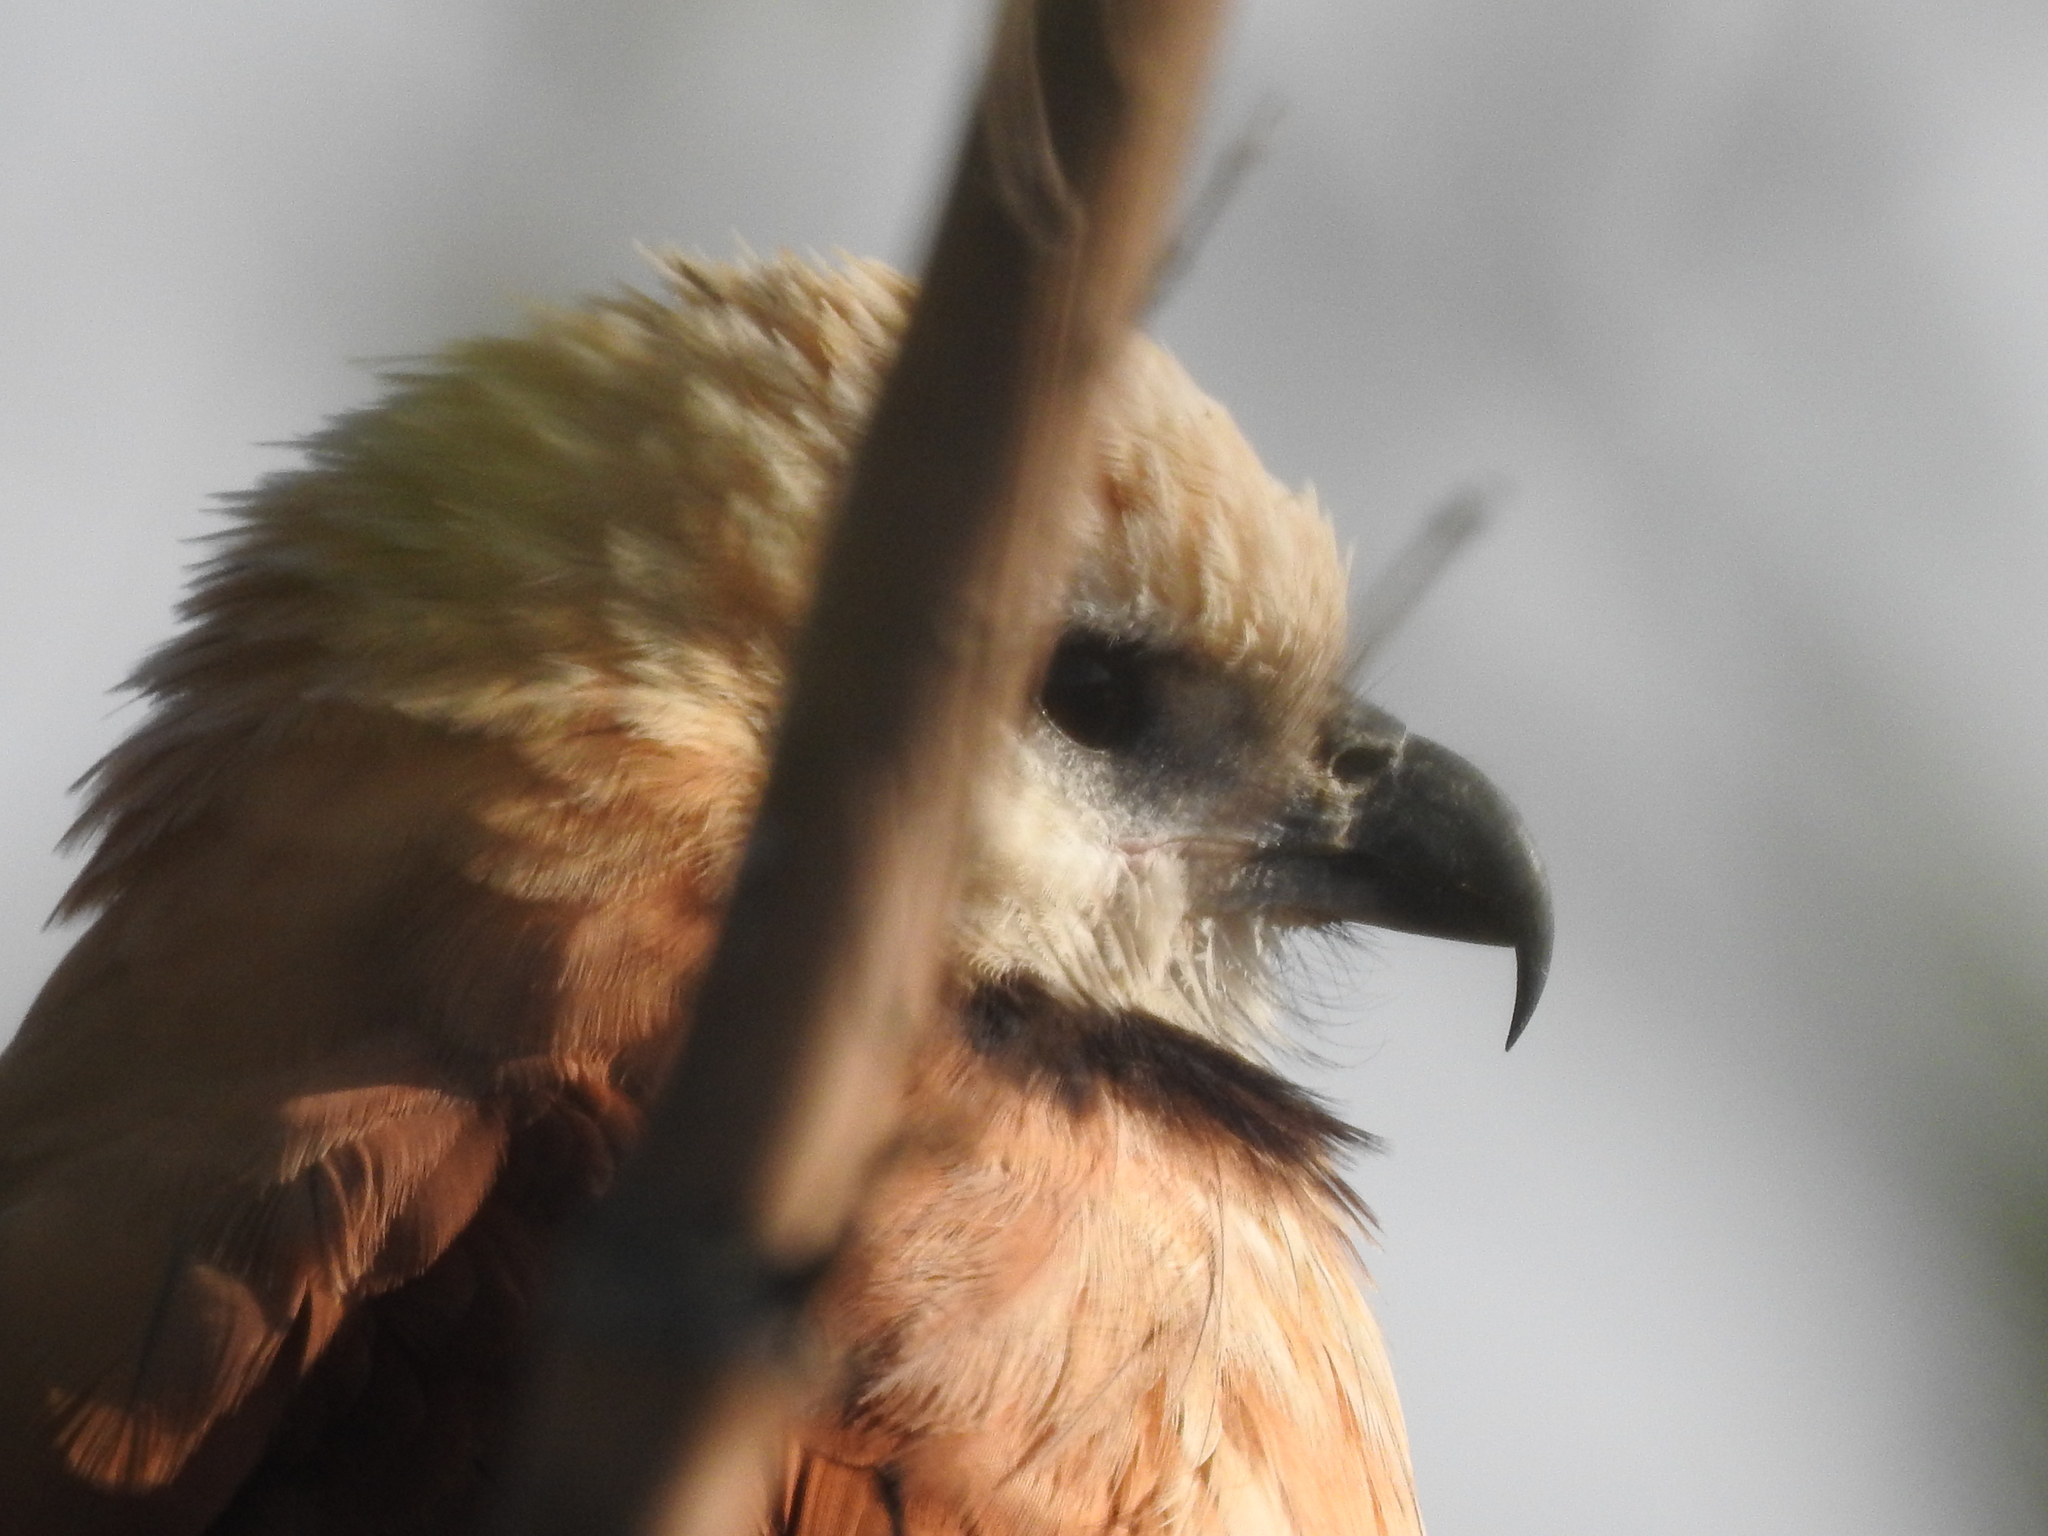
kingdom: Animalia
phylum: Chordata
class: Aves
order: Accipitriformes
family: Accipitridae
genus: Busarellus
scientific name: Busarellus nigricollis
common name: Black-collared hawk
